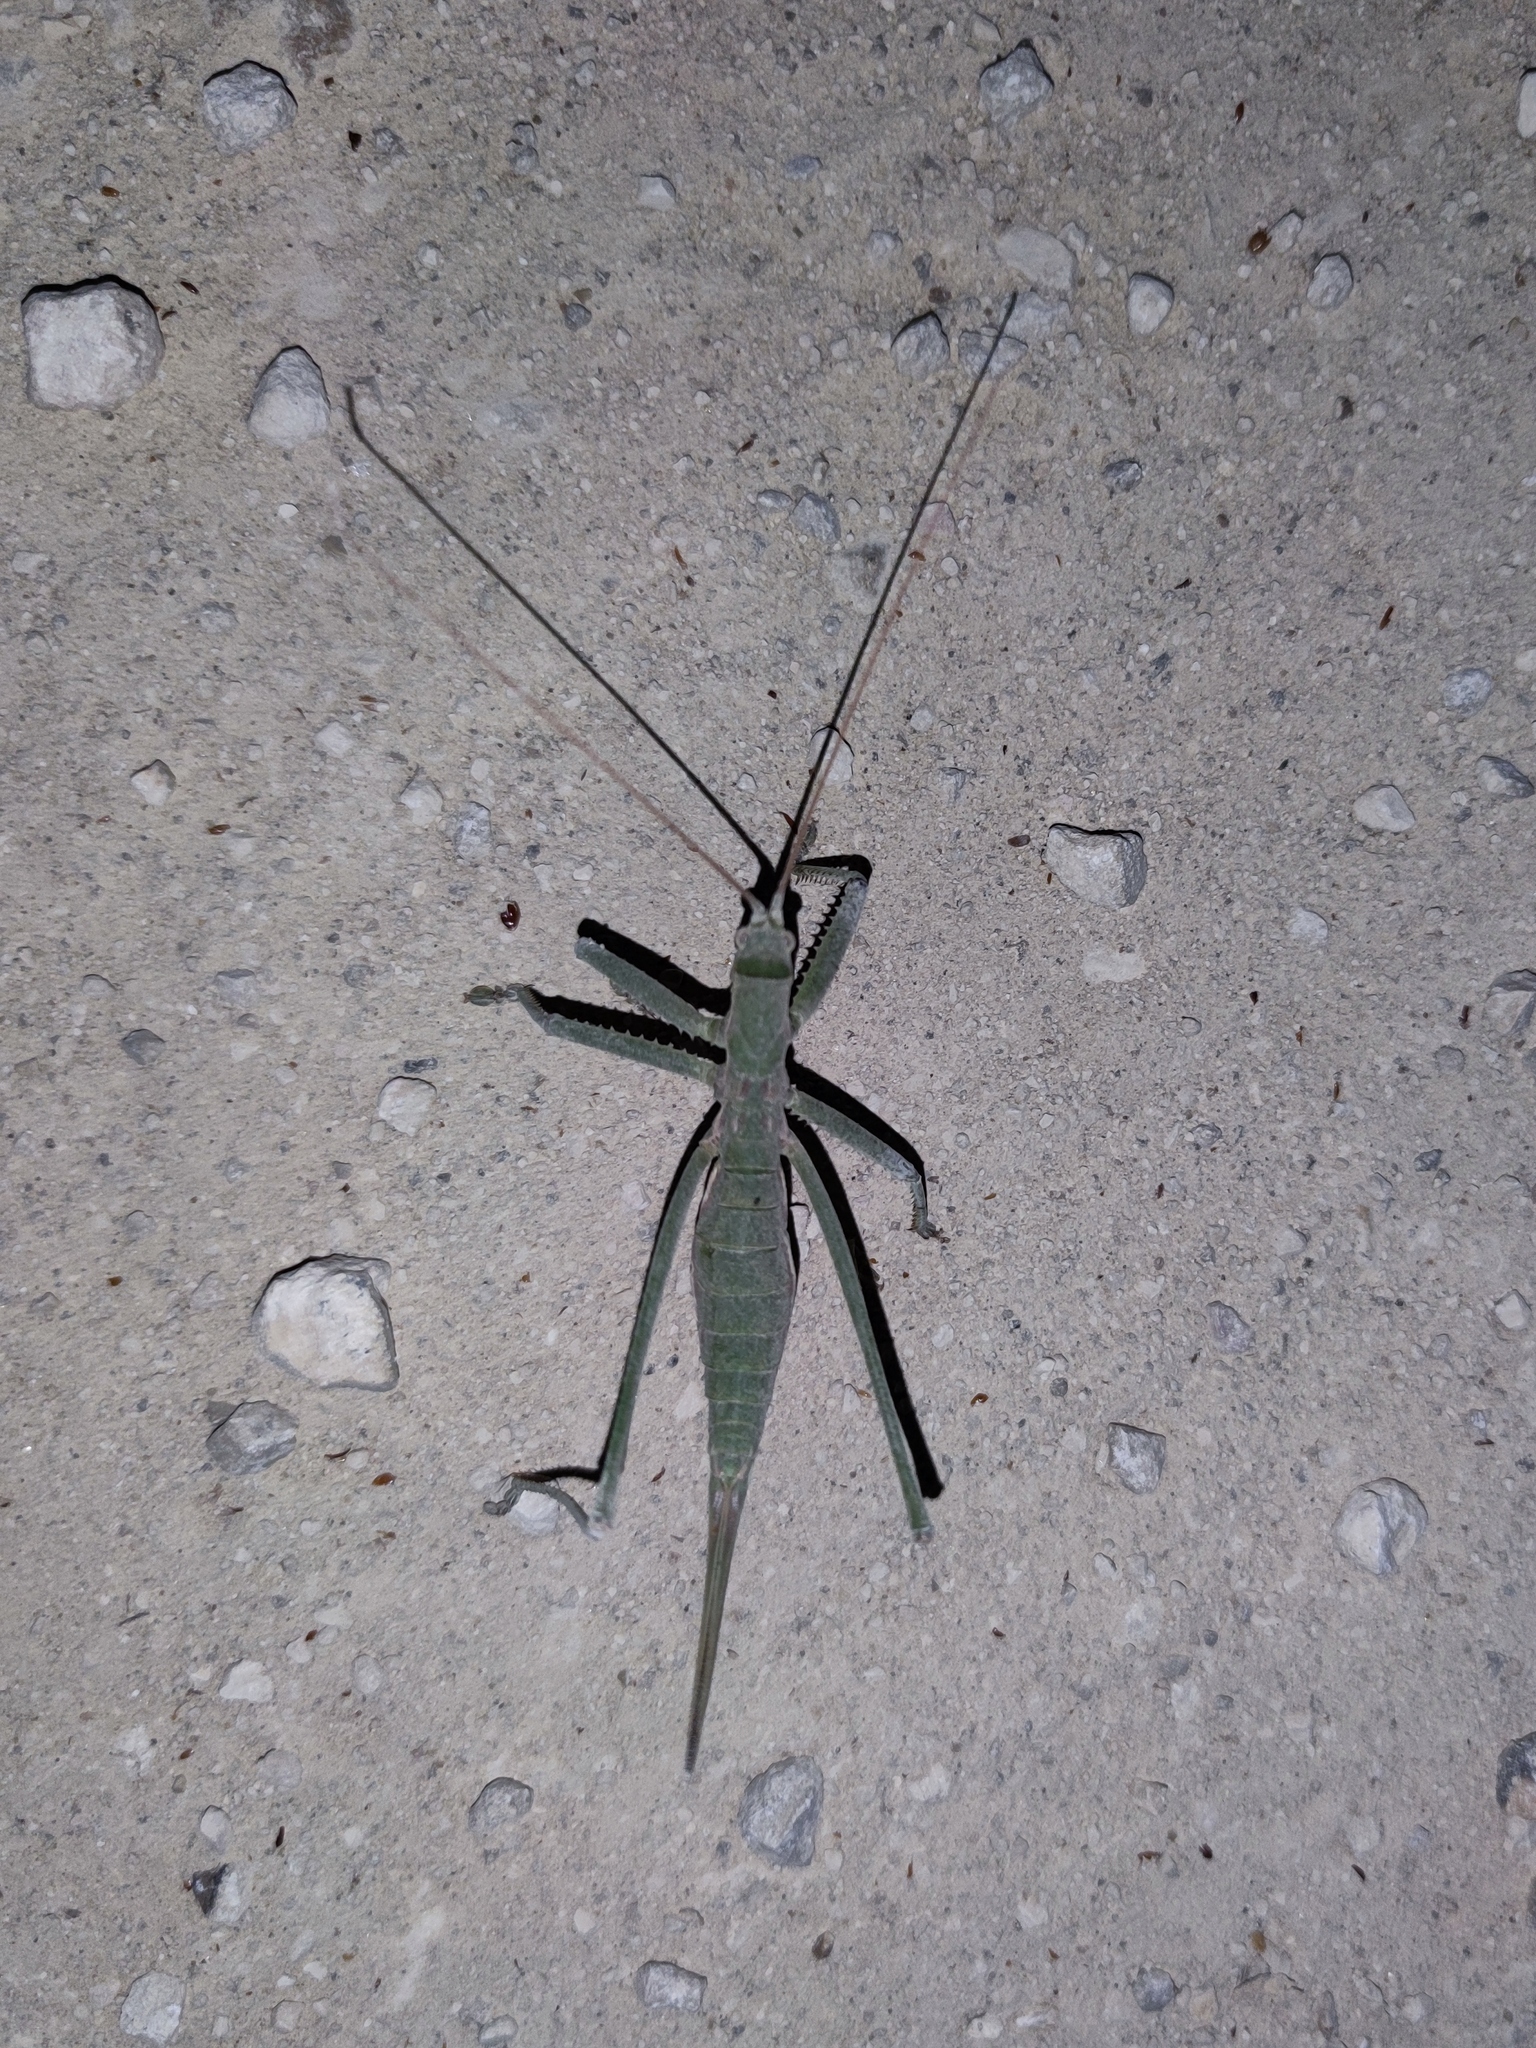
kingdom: Animalia
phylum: Arthropoda
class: Insecta
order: Orthoptera
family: Tettigoniidae
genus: Saga
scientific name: Saga pedo
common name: Common predatory bush-cricket
